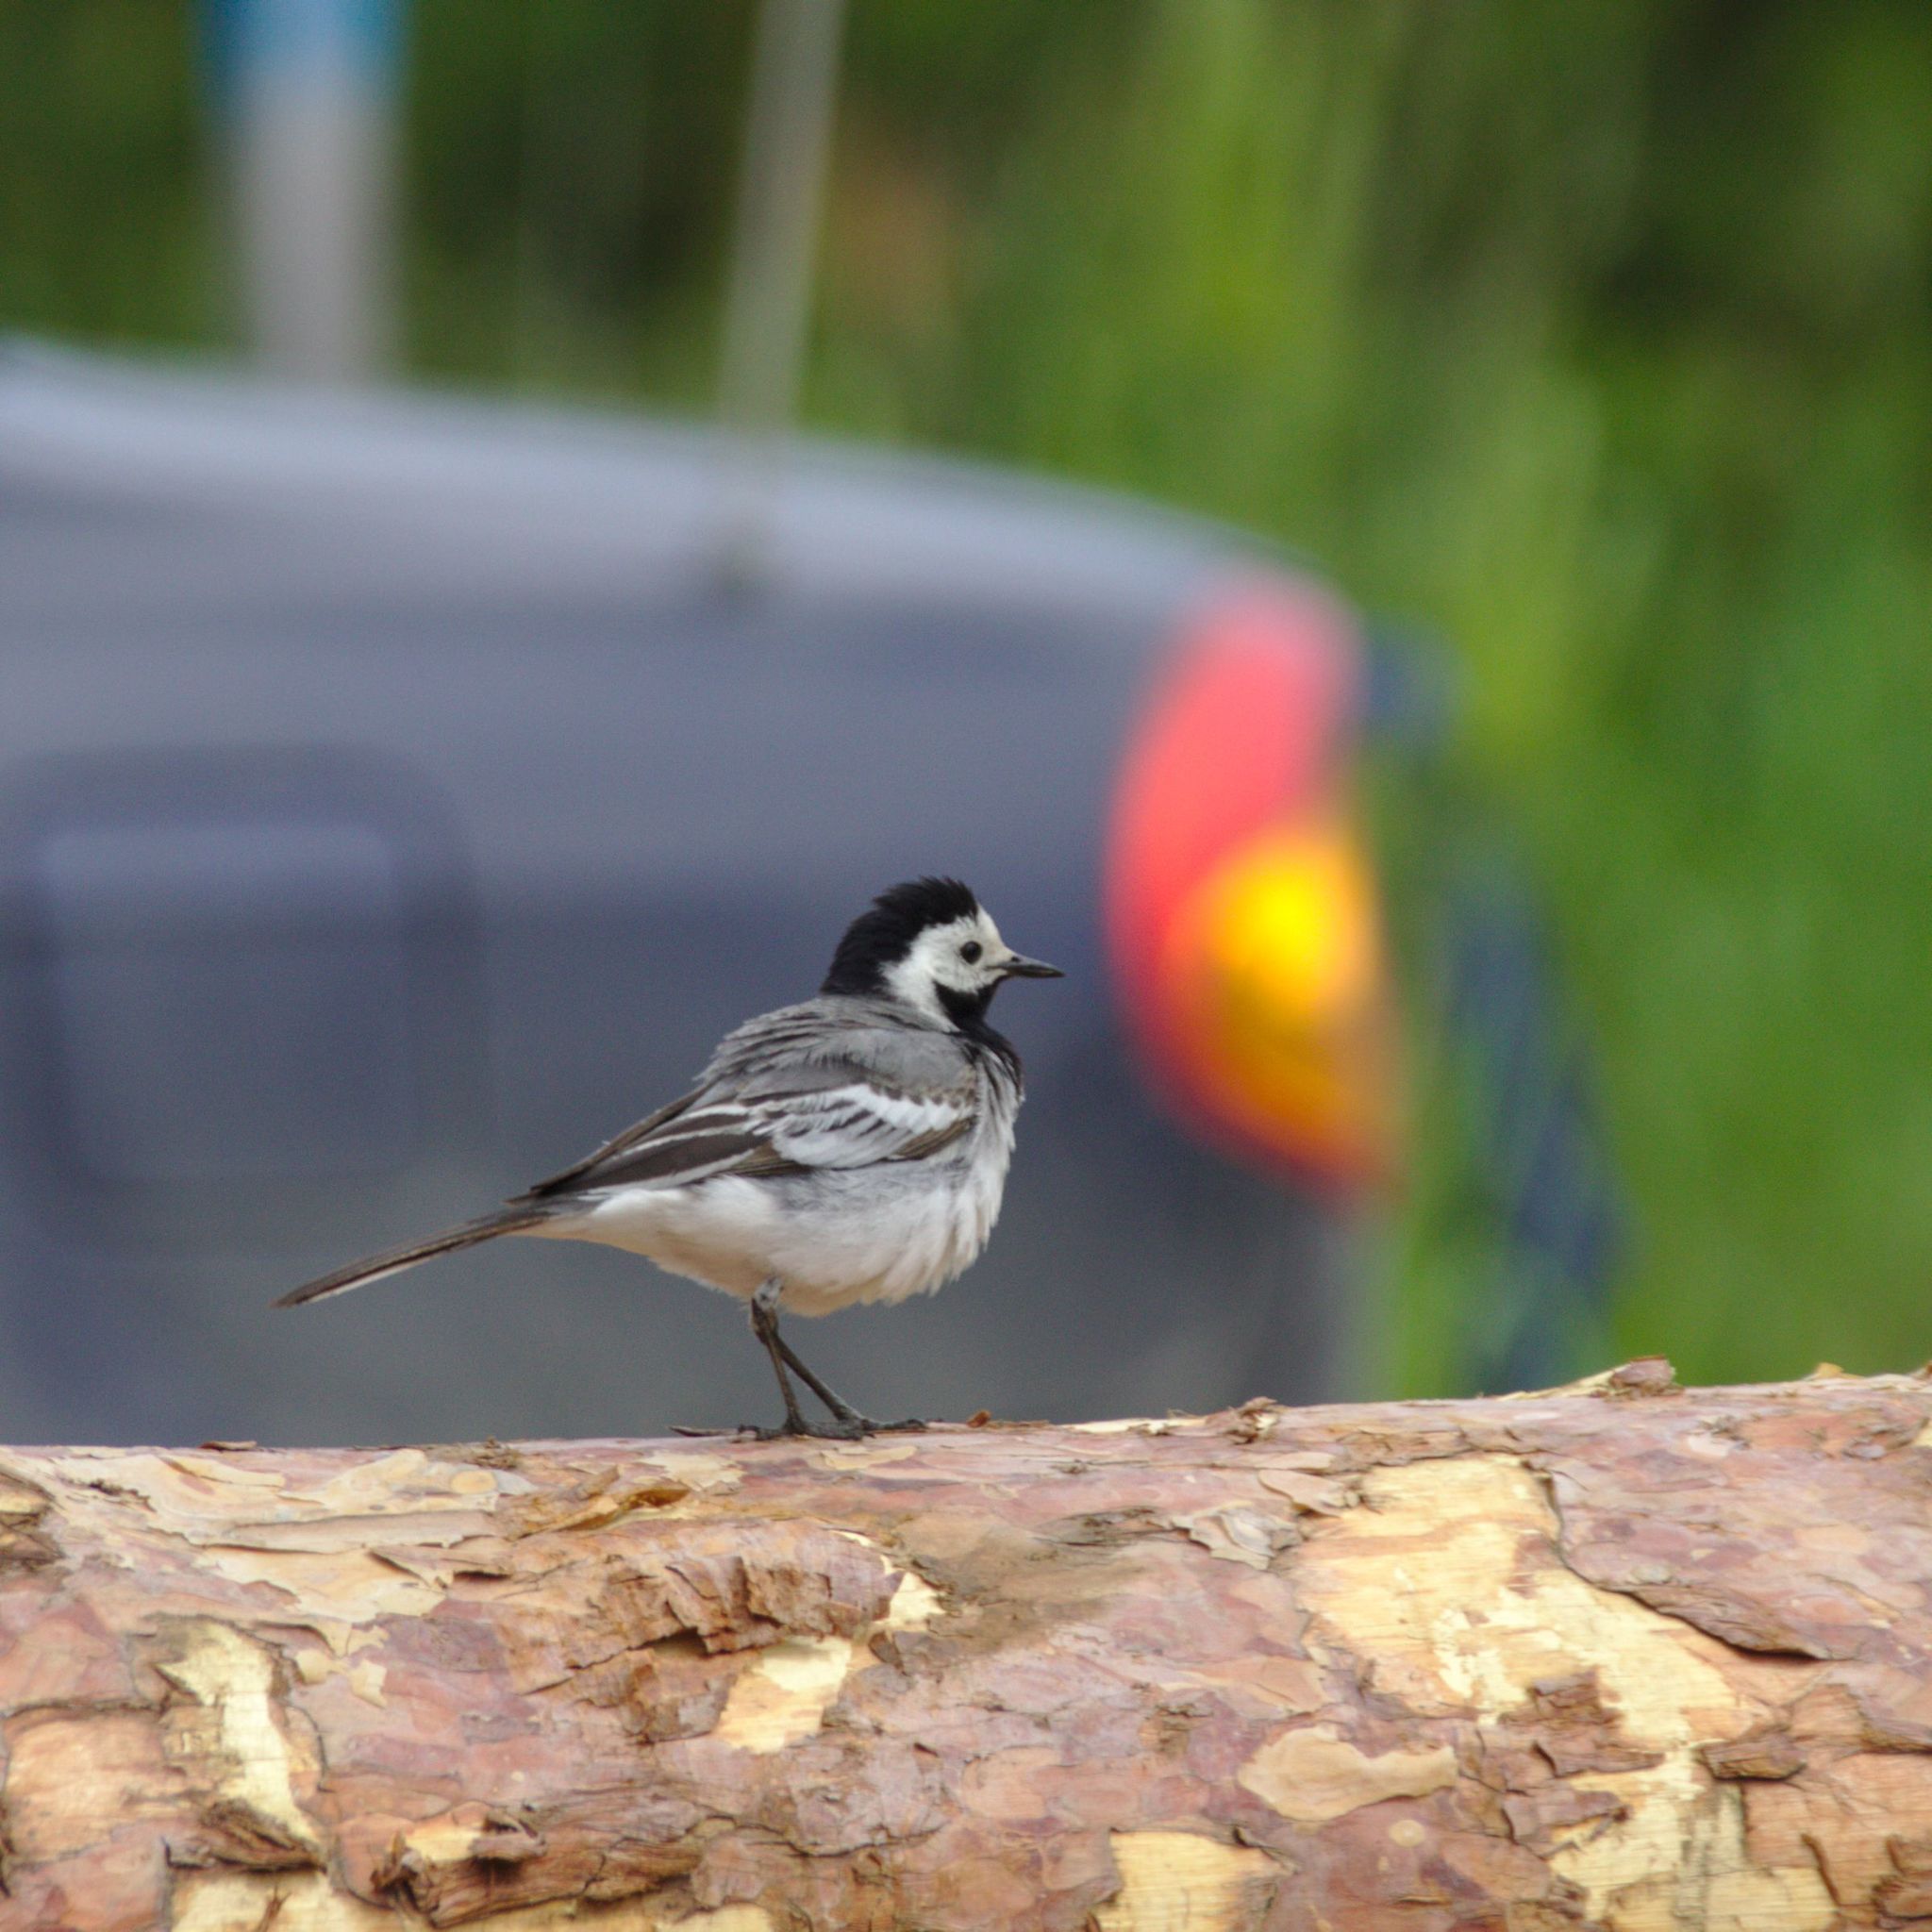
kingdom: Animalia
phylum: Chordata
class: Aves
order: Passeriformes
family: Motacillidae
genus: Motacilla
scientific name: Motacilla alba
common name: White wagtail
